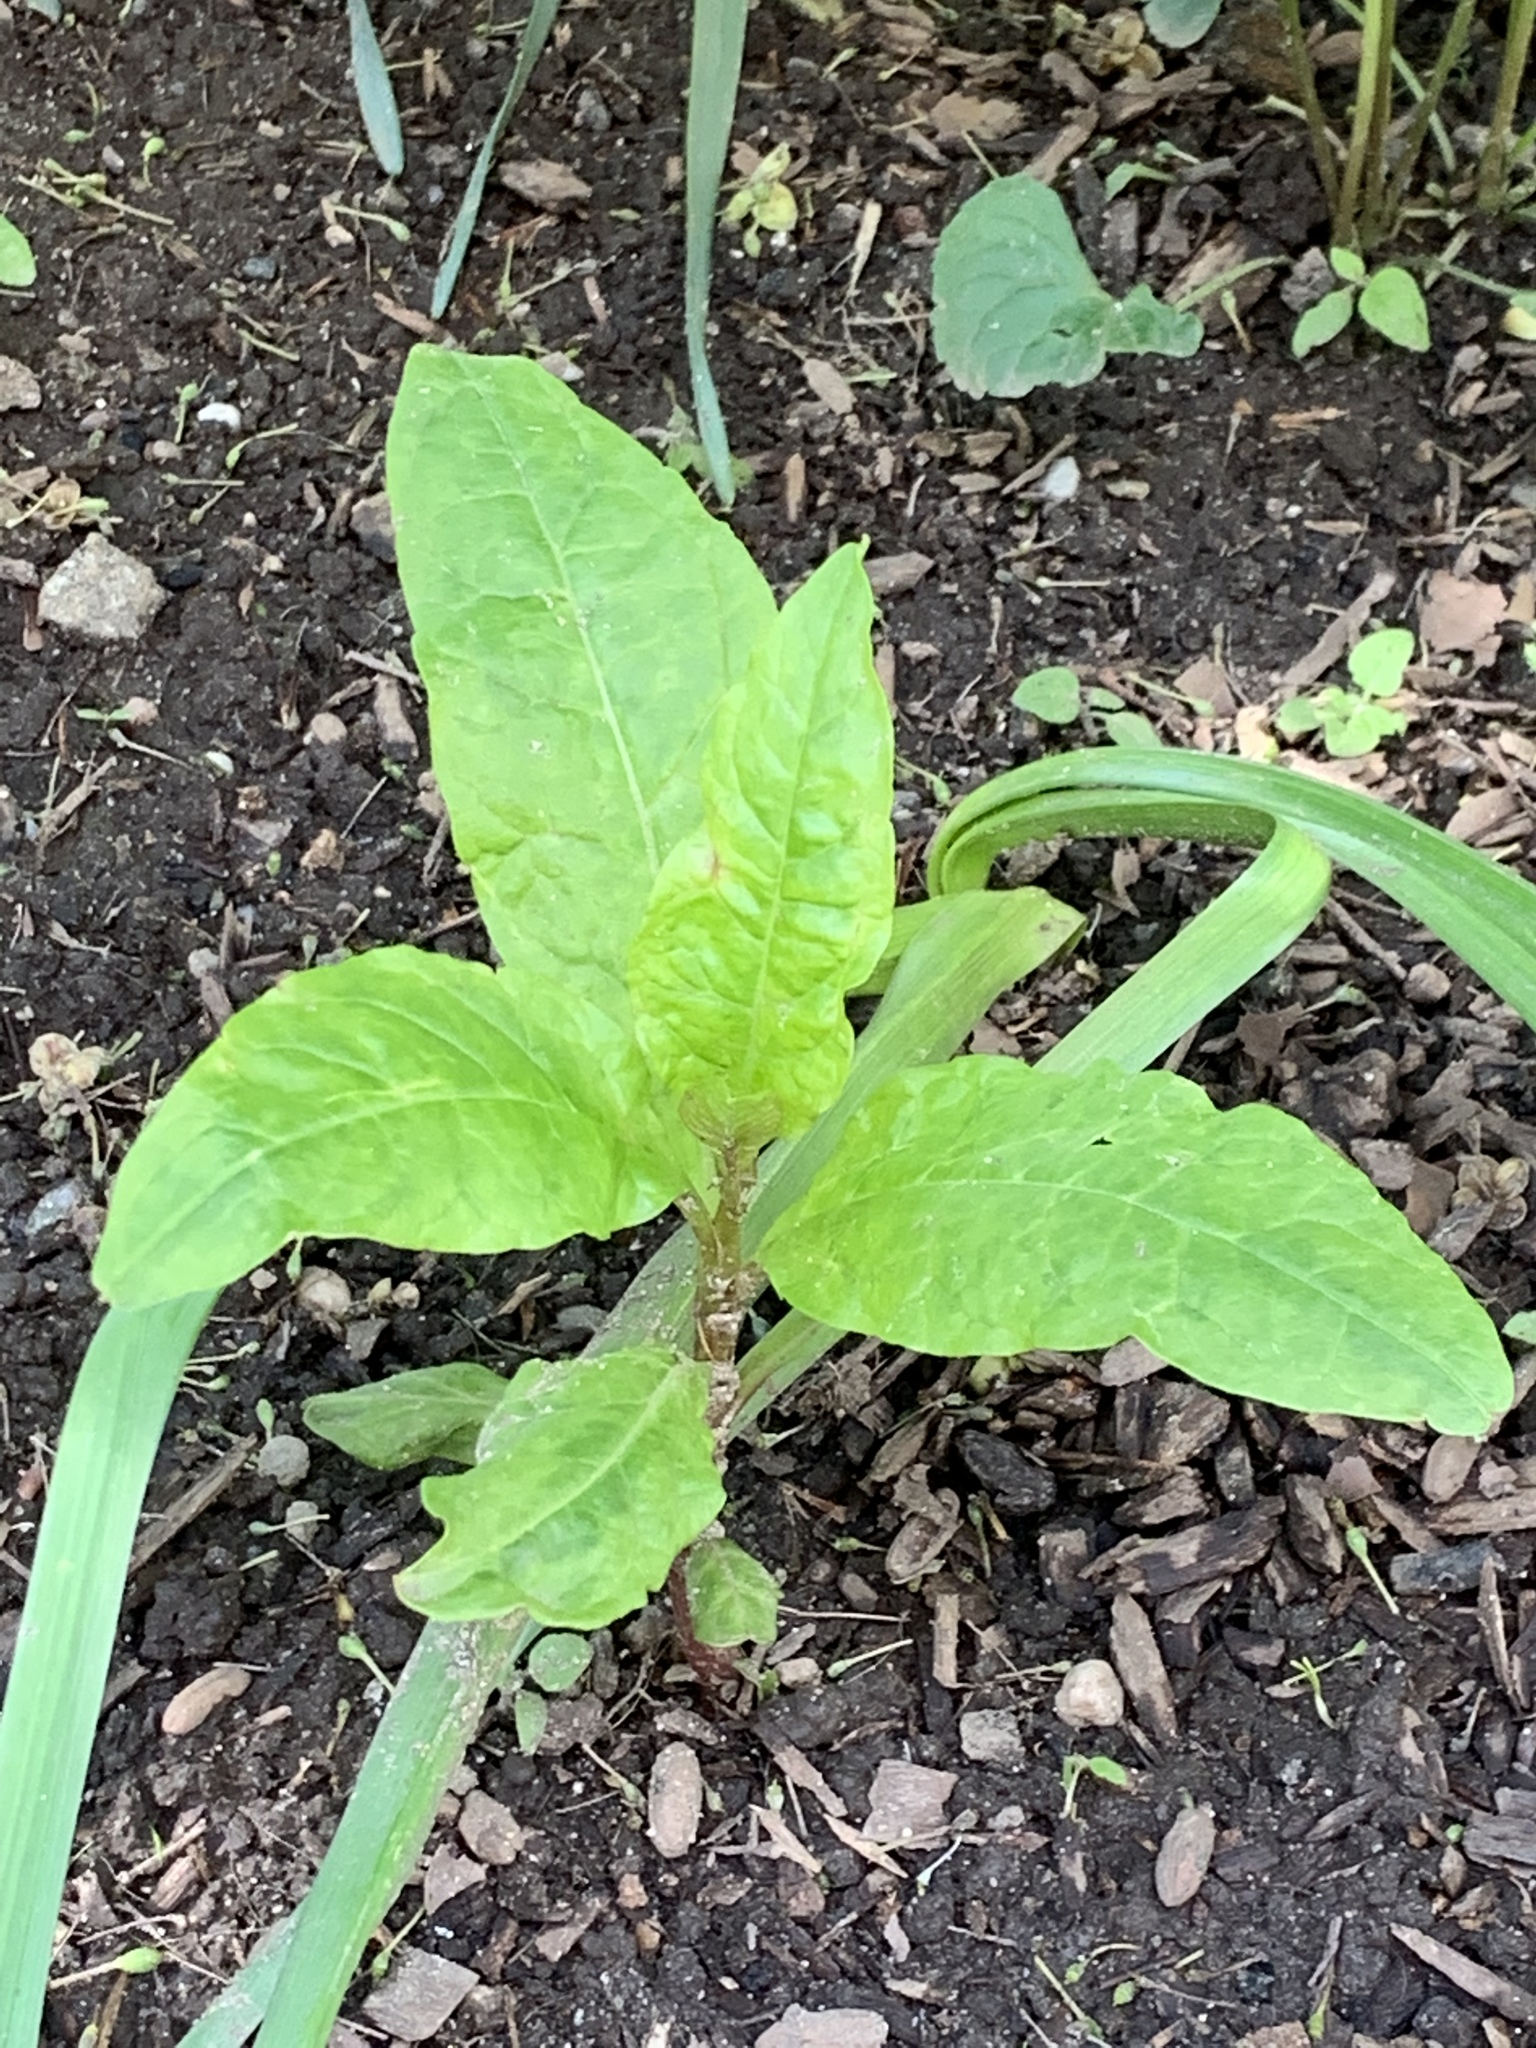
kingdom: Plantae
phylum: Tracheophyta
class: Magnoliopsida
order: Caryophyllales
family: Phytolaccaceae
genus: Phytolacca
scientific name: Phytolacca americana
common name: American pokeweed
